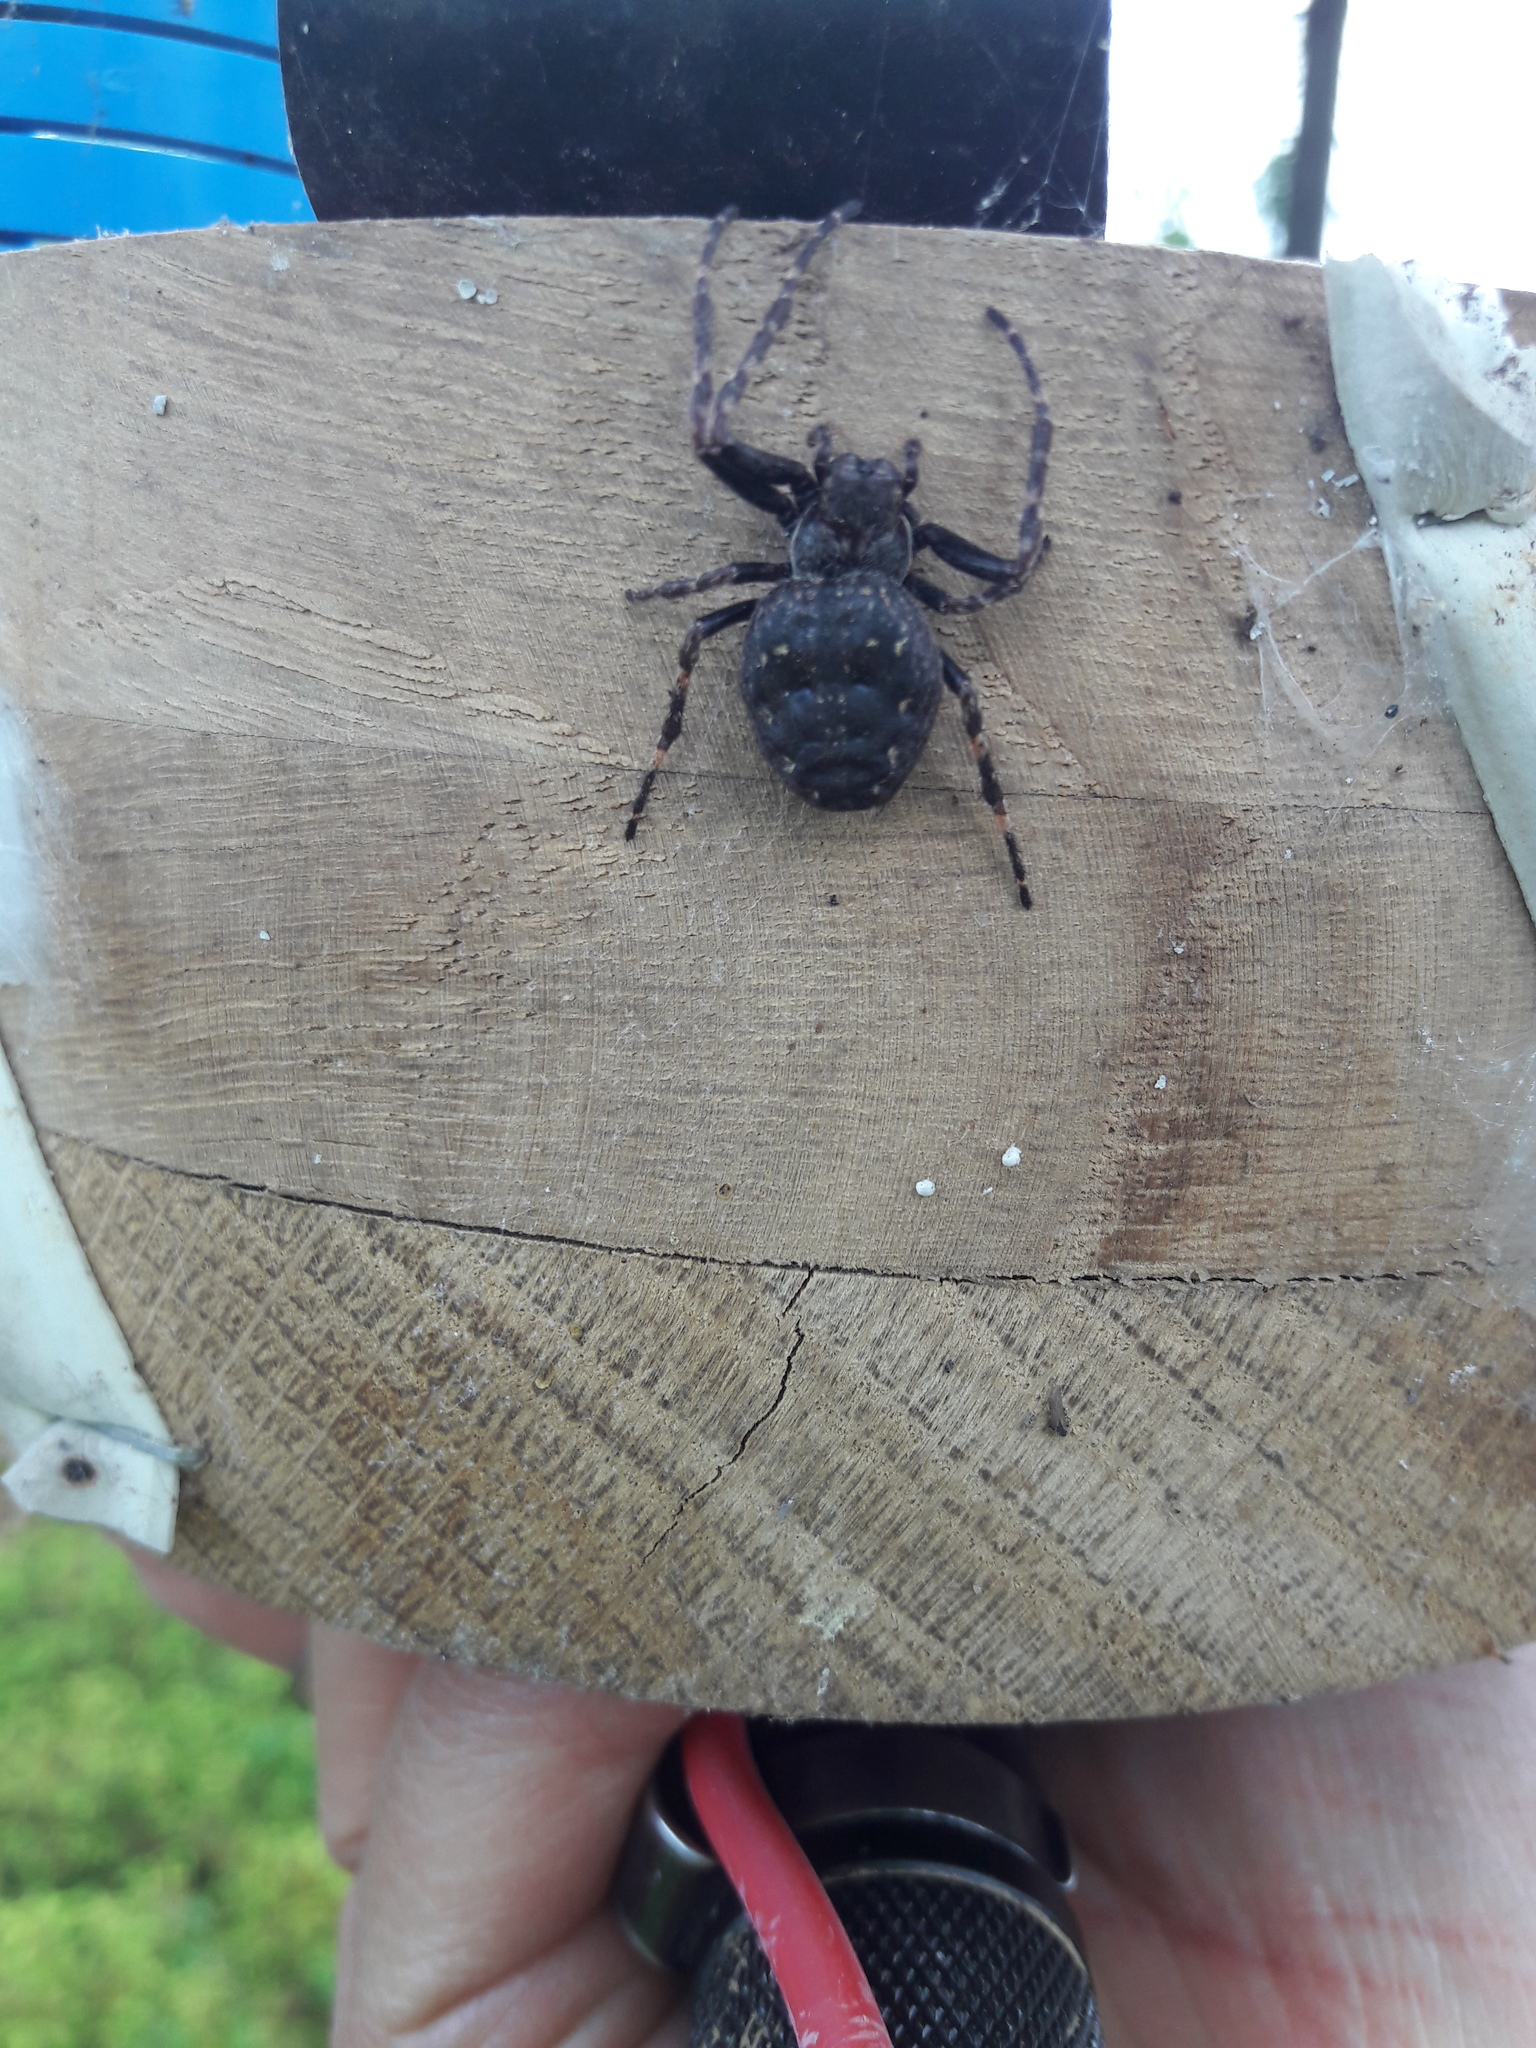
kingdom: Animalia
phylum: Arthropoda
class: Arachnida
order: Araneae
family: Araneidae
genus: Nuctenea
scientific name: Nuctenea umbratica
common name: Toad spider
